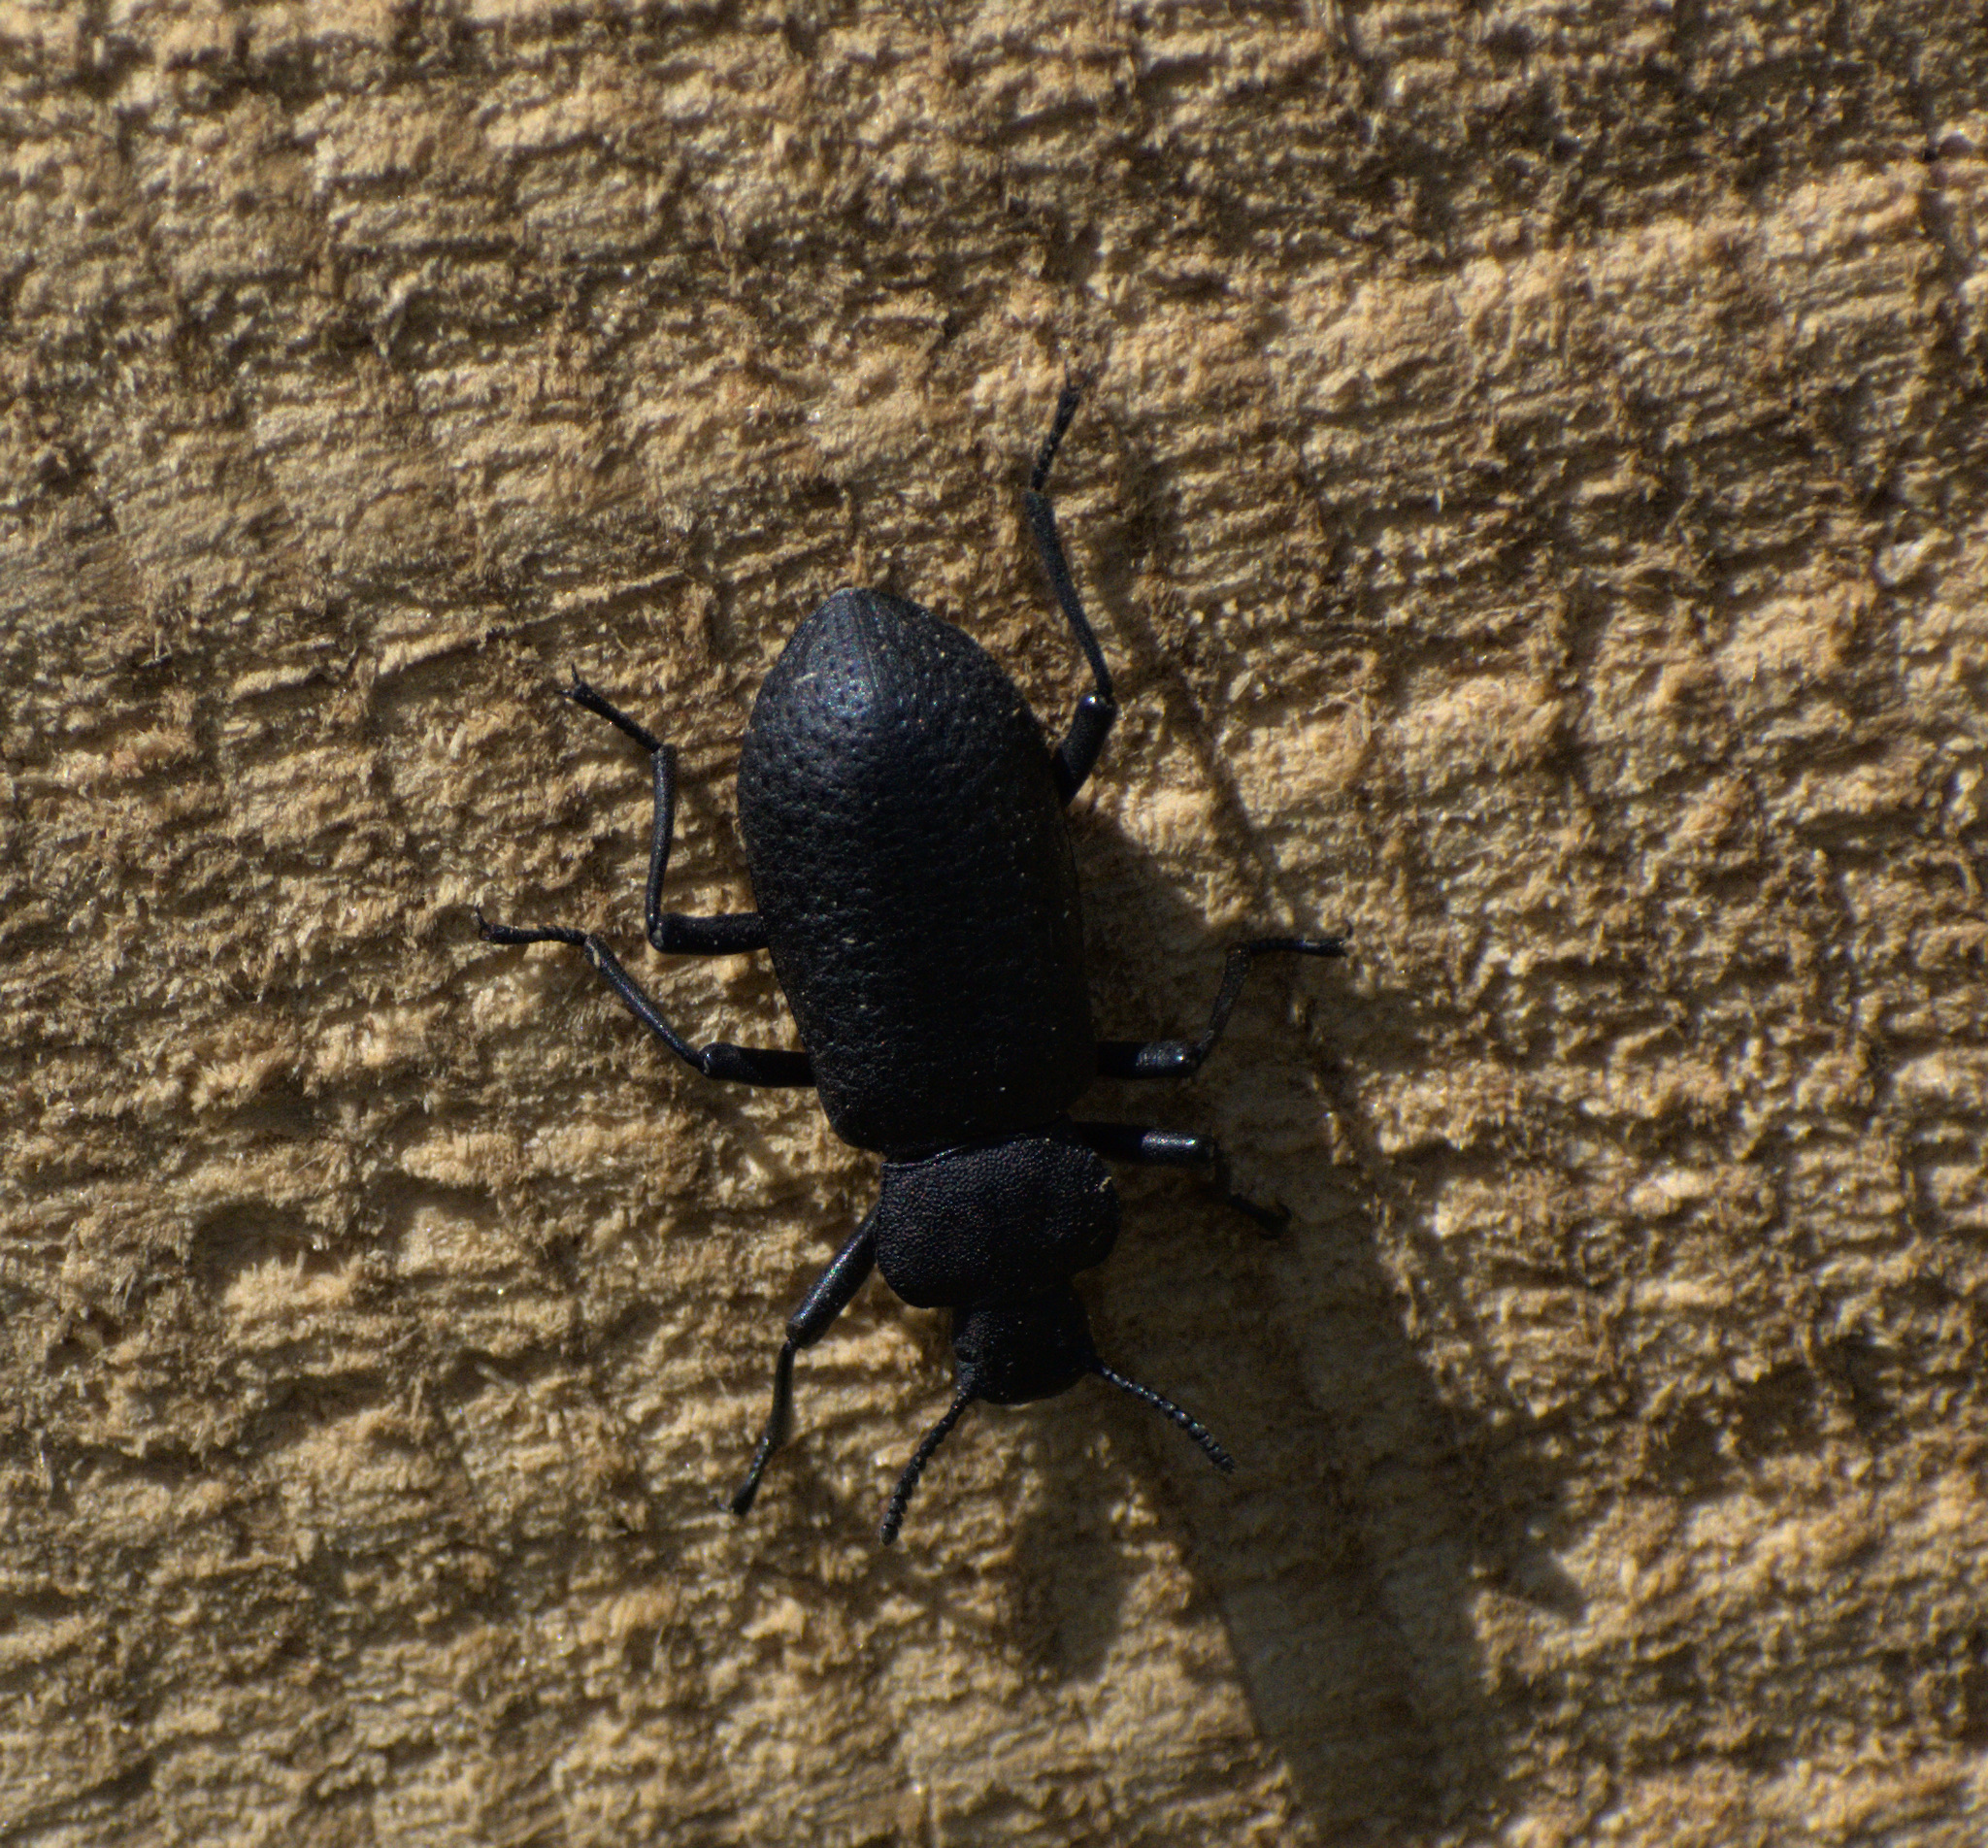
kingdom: Animalia
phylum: Arthropoda
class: Insecta
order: Coleoptera
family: Tenebrionidae
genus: Iphthiminus
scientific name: Iphthiminus serratus
